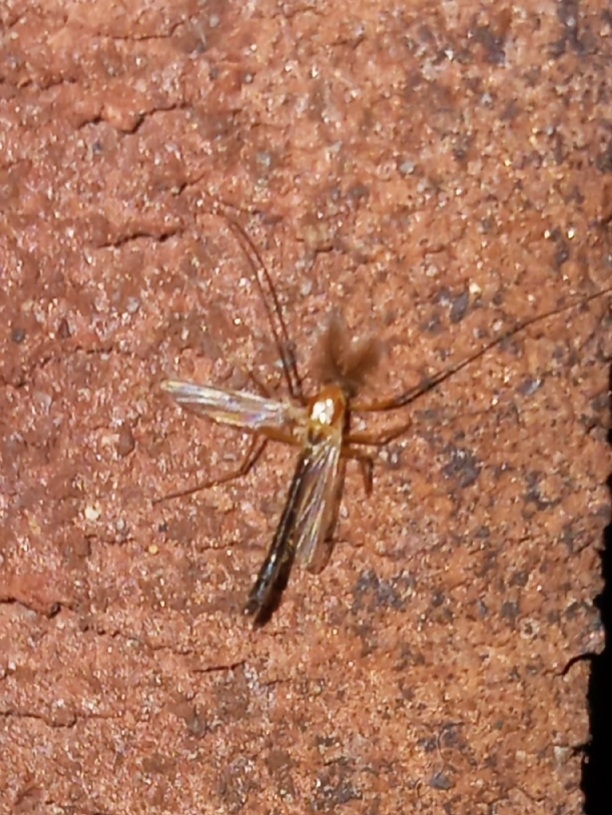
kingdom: Animalia
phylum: Arthropoda
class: Insecta
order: Diptera
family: Chironomidae
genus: Chironomus
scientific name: Chironomus ochreatus
